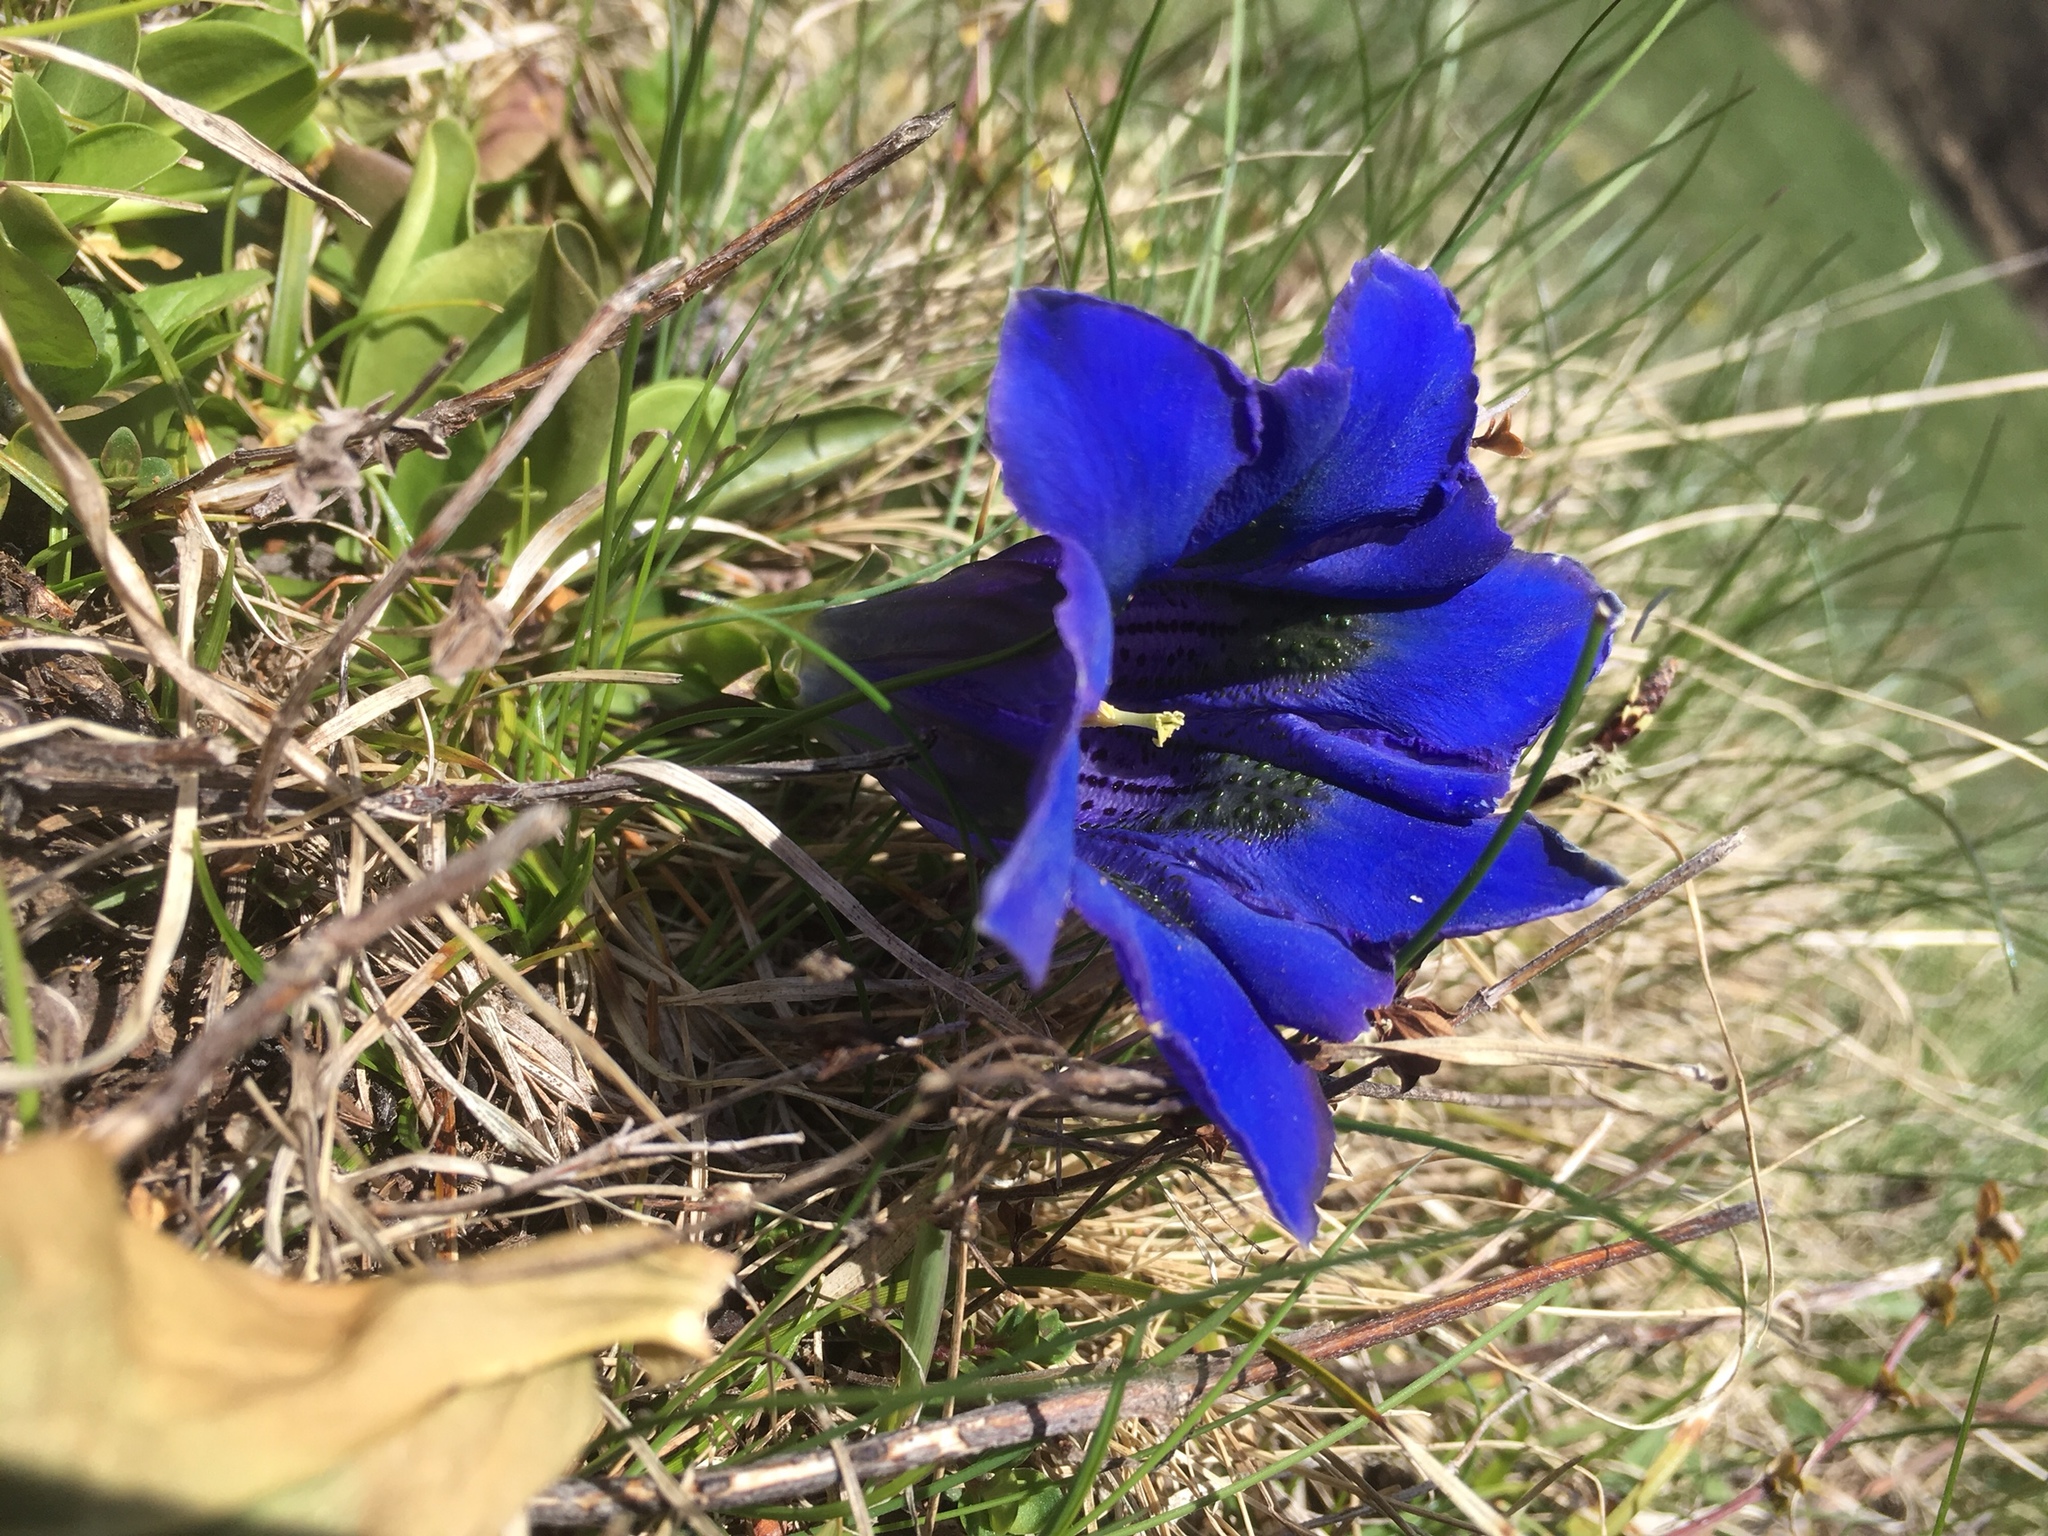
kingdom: Plantae
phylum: Tracheophyta
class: Magnoliopsida
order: Gentianales
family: Gentianaceae
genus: Gentiana
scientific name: Gentiana acaulis
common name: Trumpet gentian
